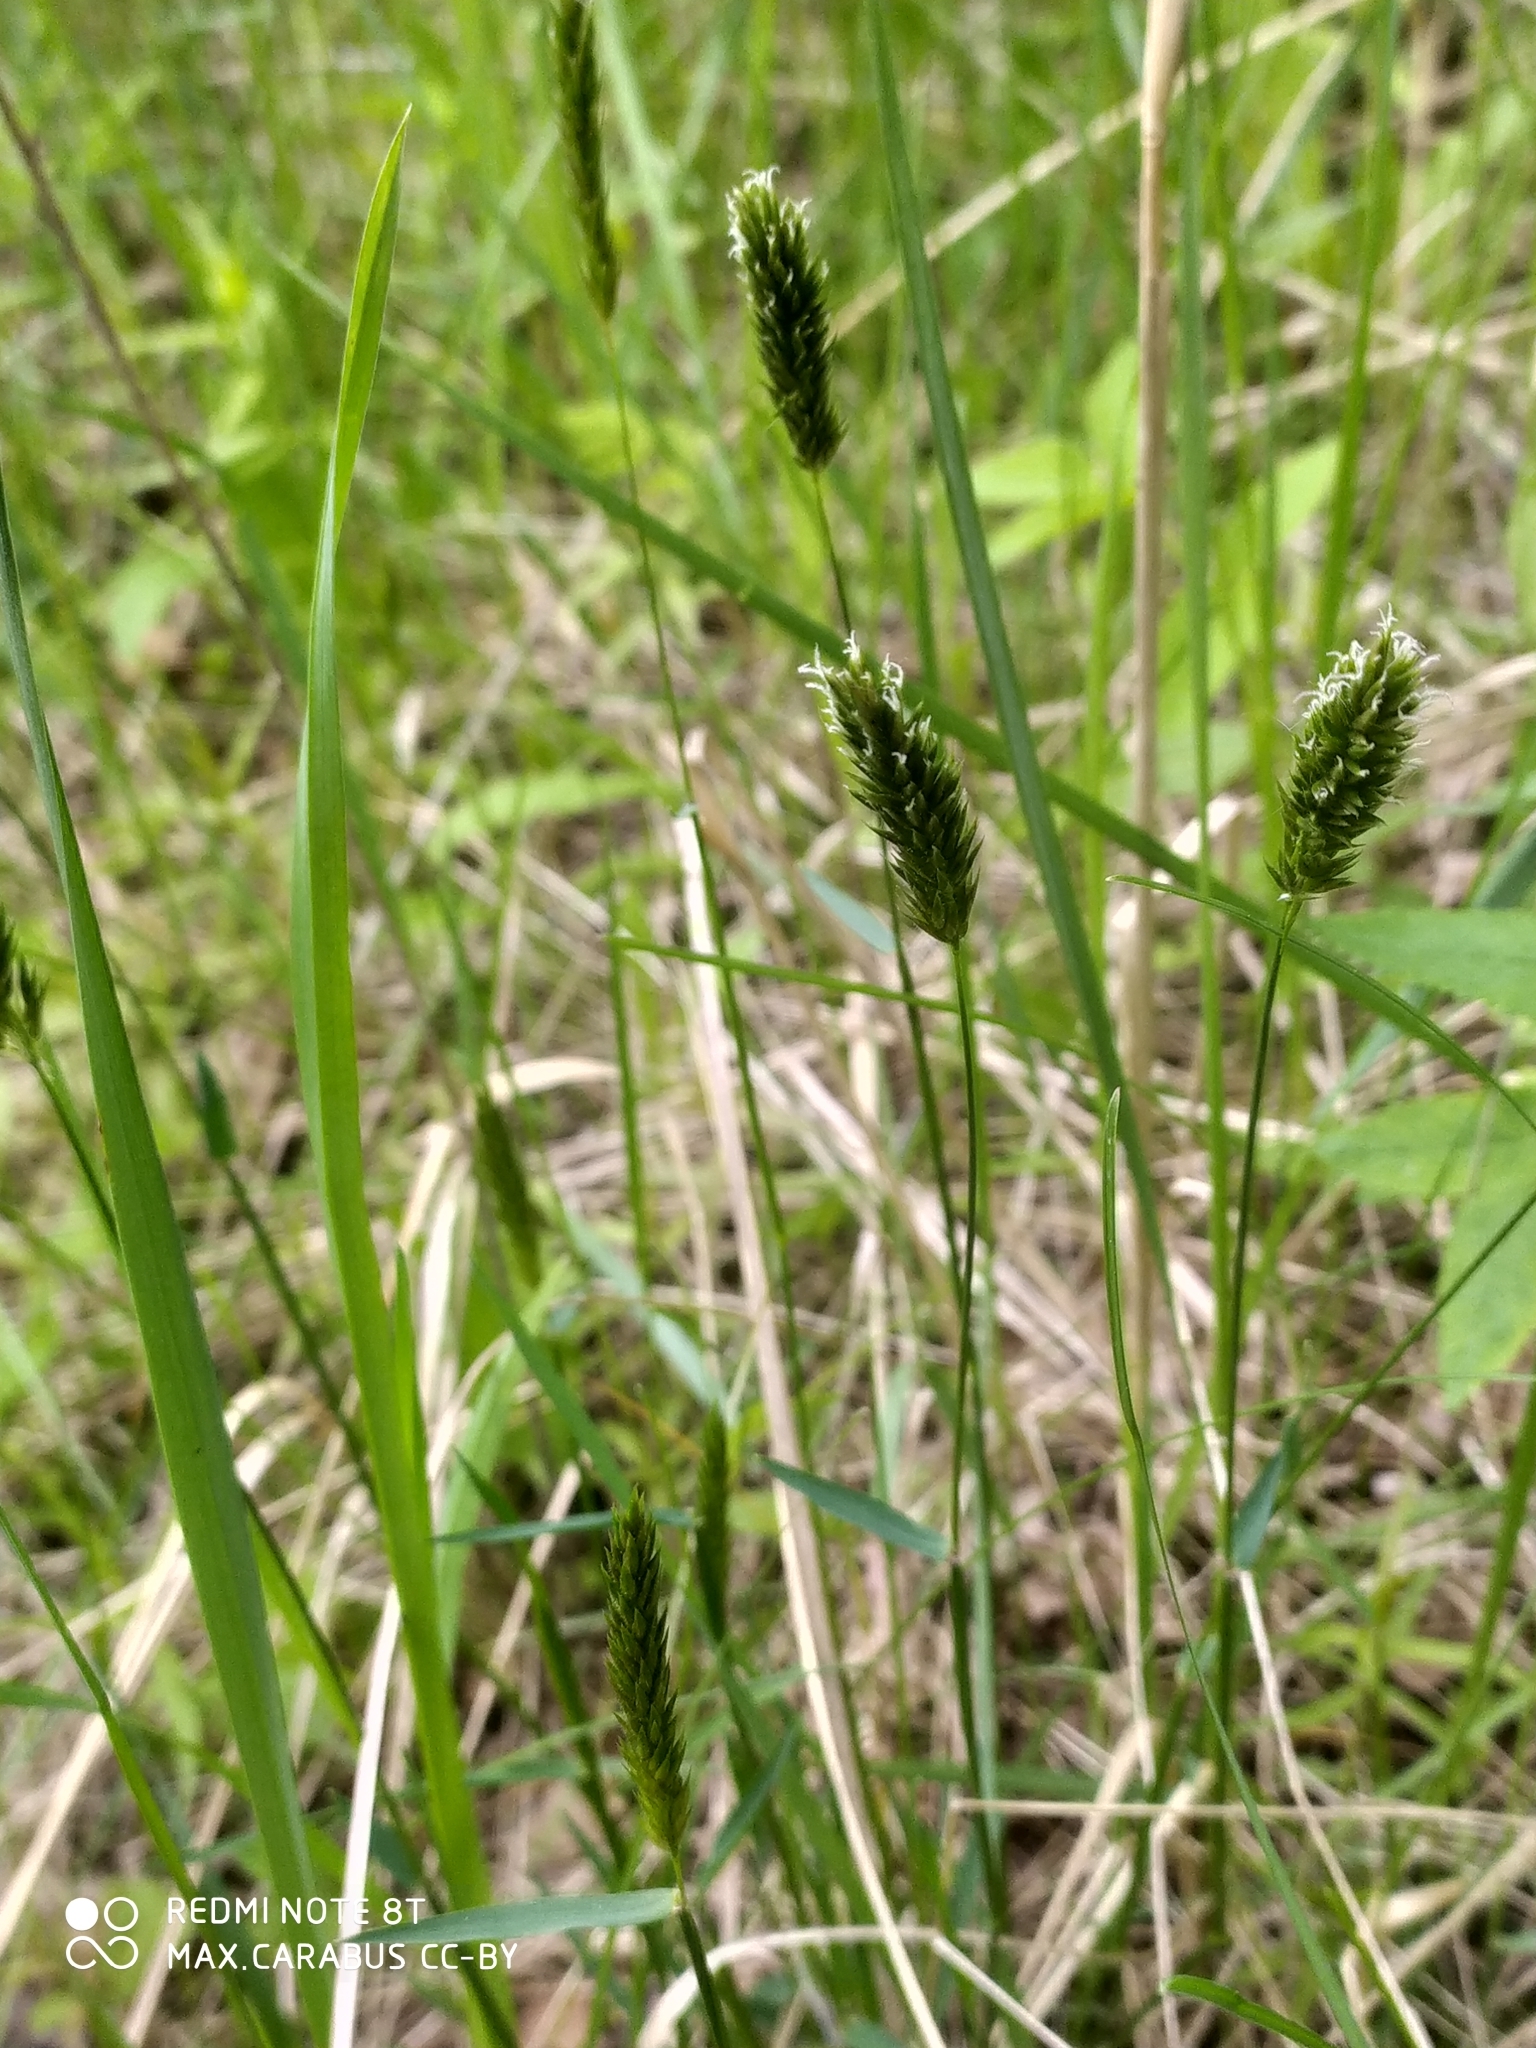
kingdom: Plantae
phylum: Tracheophyta
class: Liliopsida
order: Poales
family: Poaceae
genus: Anthoxanthum
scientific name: Anthoxanthum odoratum
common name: Sweet vernalgrass
